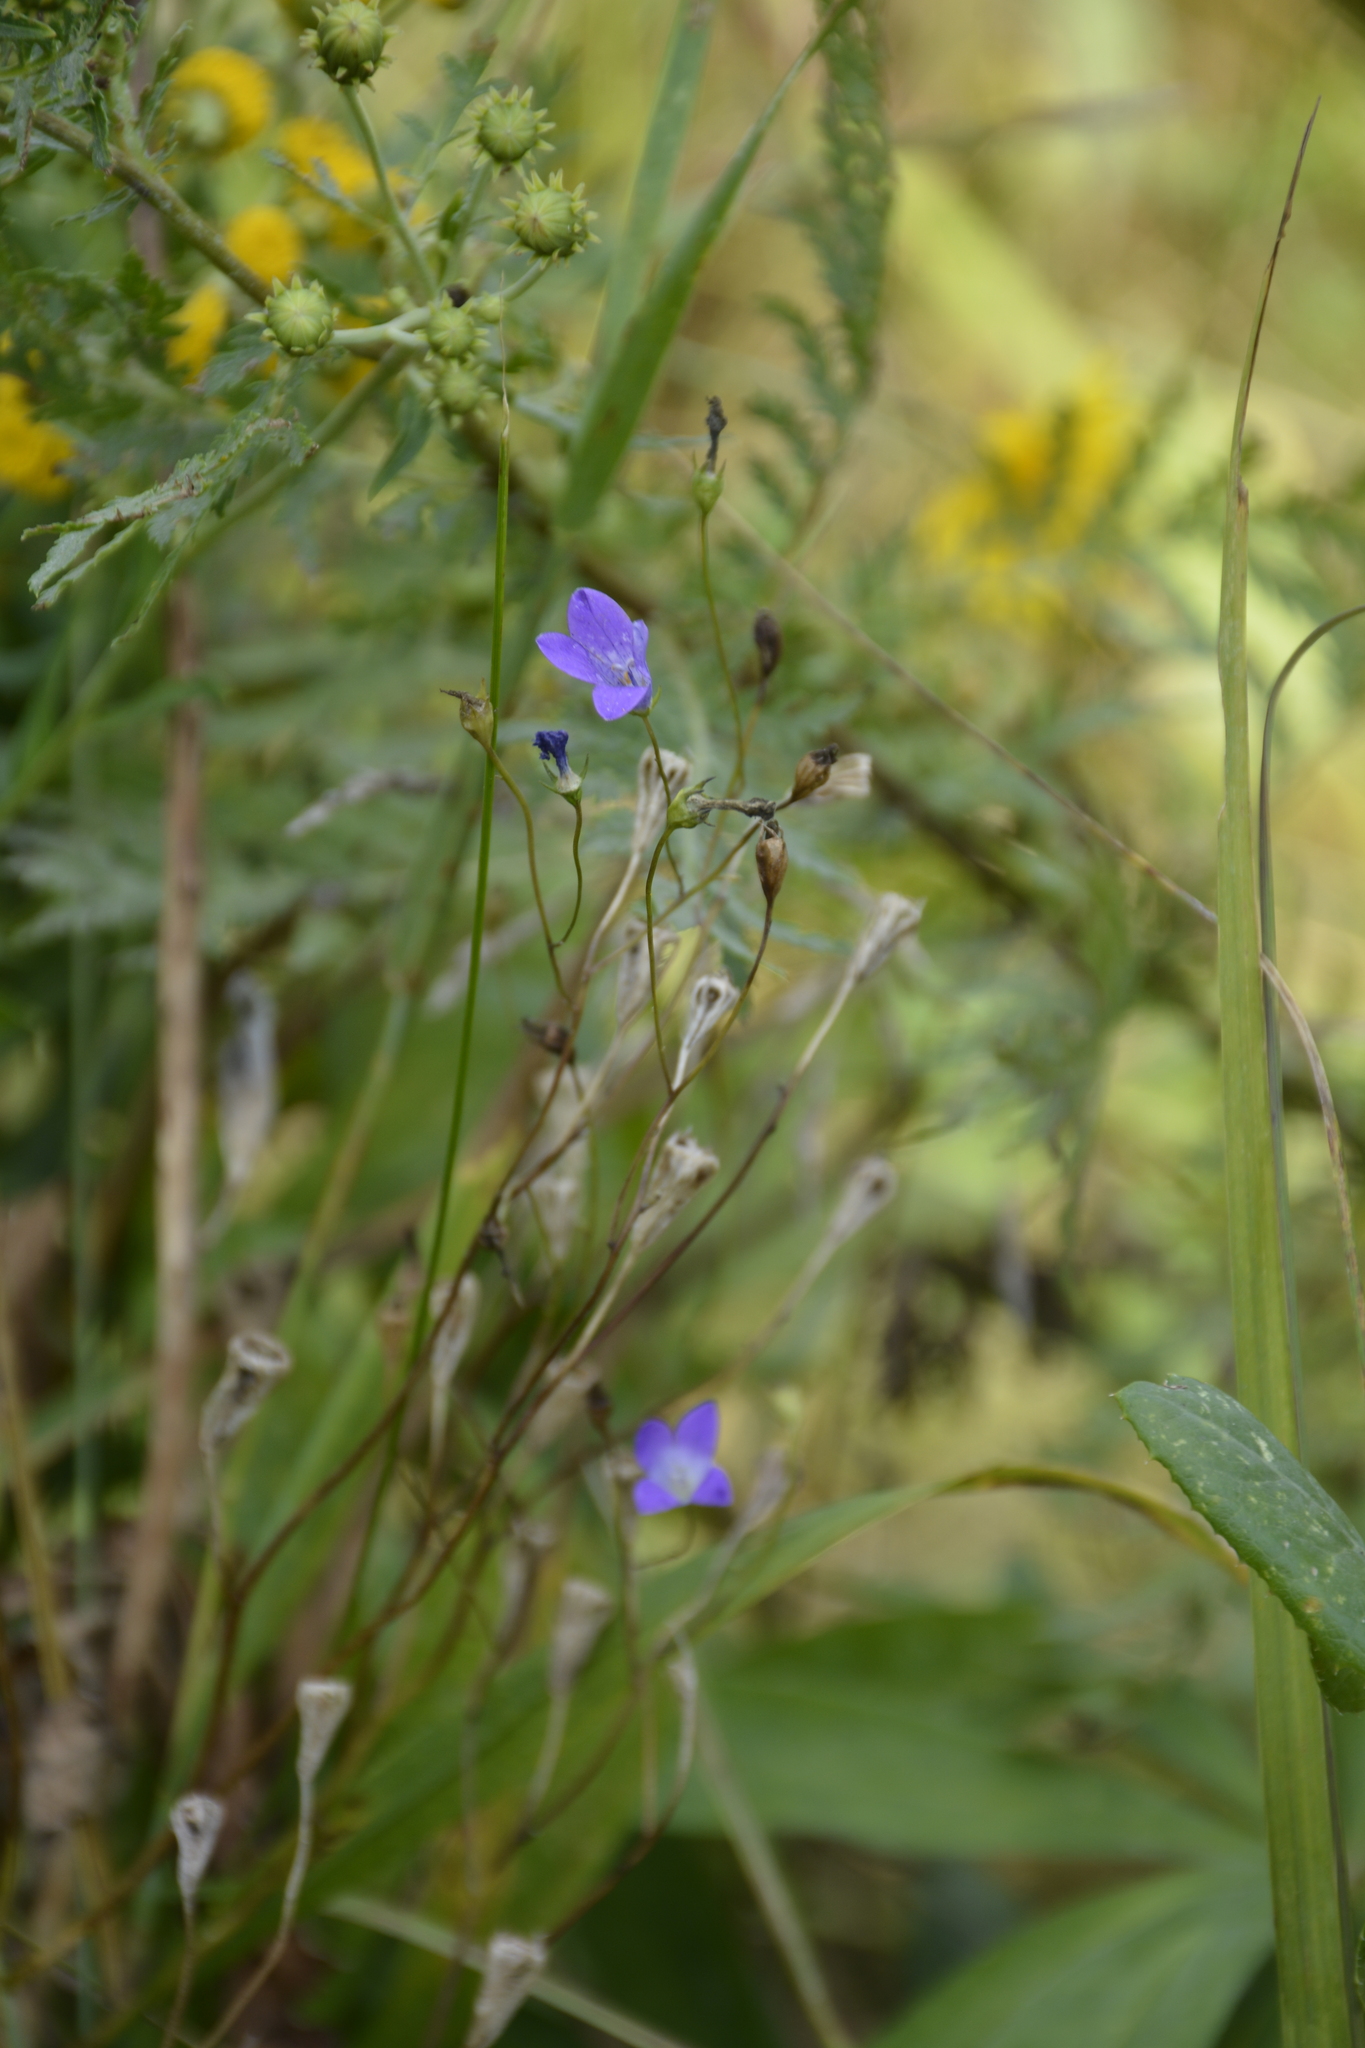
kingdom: Plantae
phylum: Tracheophyta
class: Magnoliopsida
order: Asterales
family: Campanulaceae
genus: Campanula
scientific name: Campanula patula
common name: Spreading bellflower
